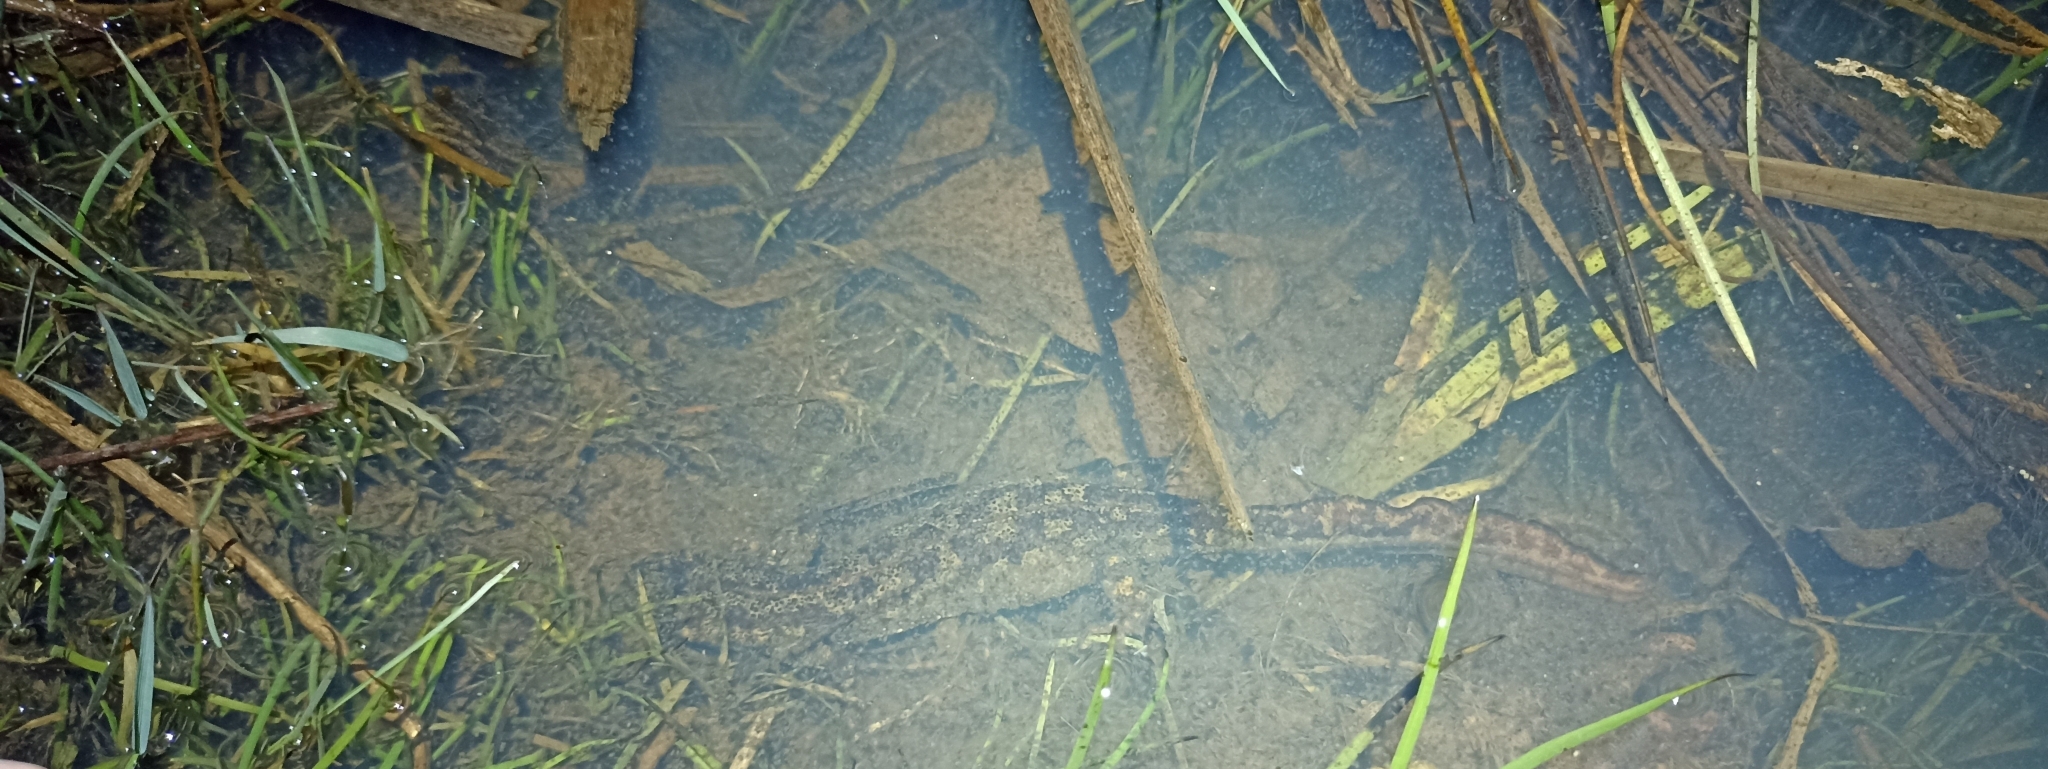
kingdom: Animalia
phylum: Chordata
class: Amphibia
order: Caudata
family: Salamandridae
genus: Triturus
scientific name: Triturus
